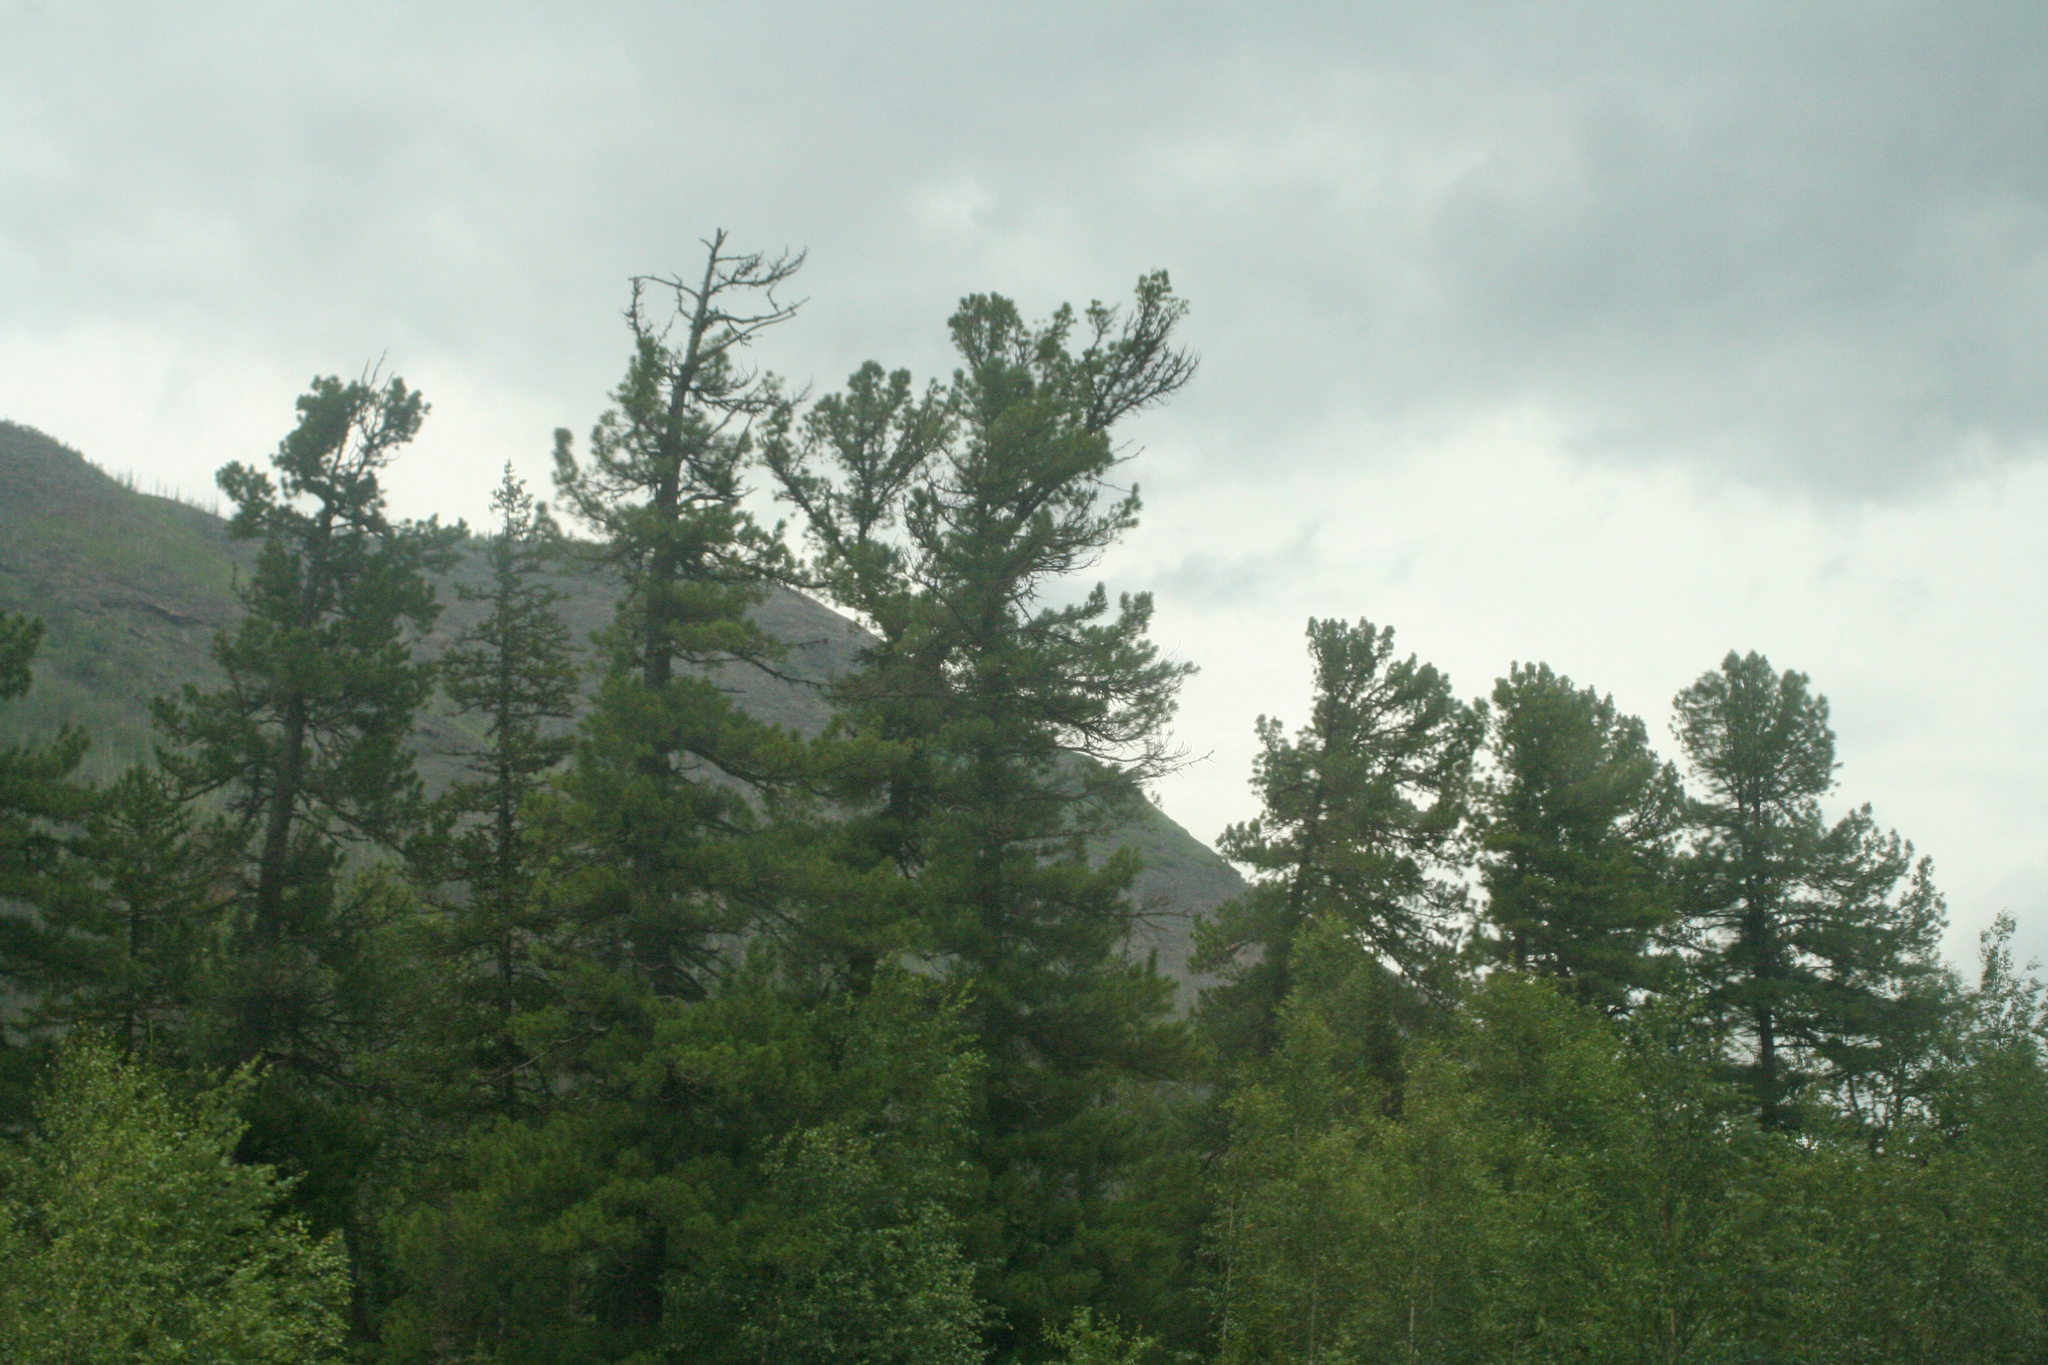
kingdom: Plantae
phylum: Tracheophyta
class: Pinopsida
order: Pinales
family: Pinaceae
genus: Pinus
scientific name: Pinus sibirica
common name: Siberian pine
